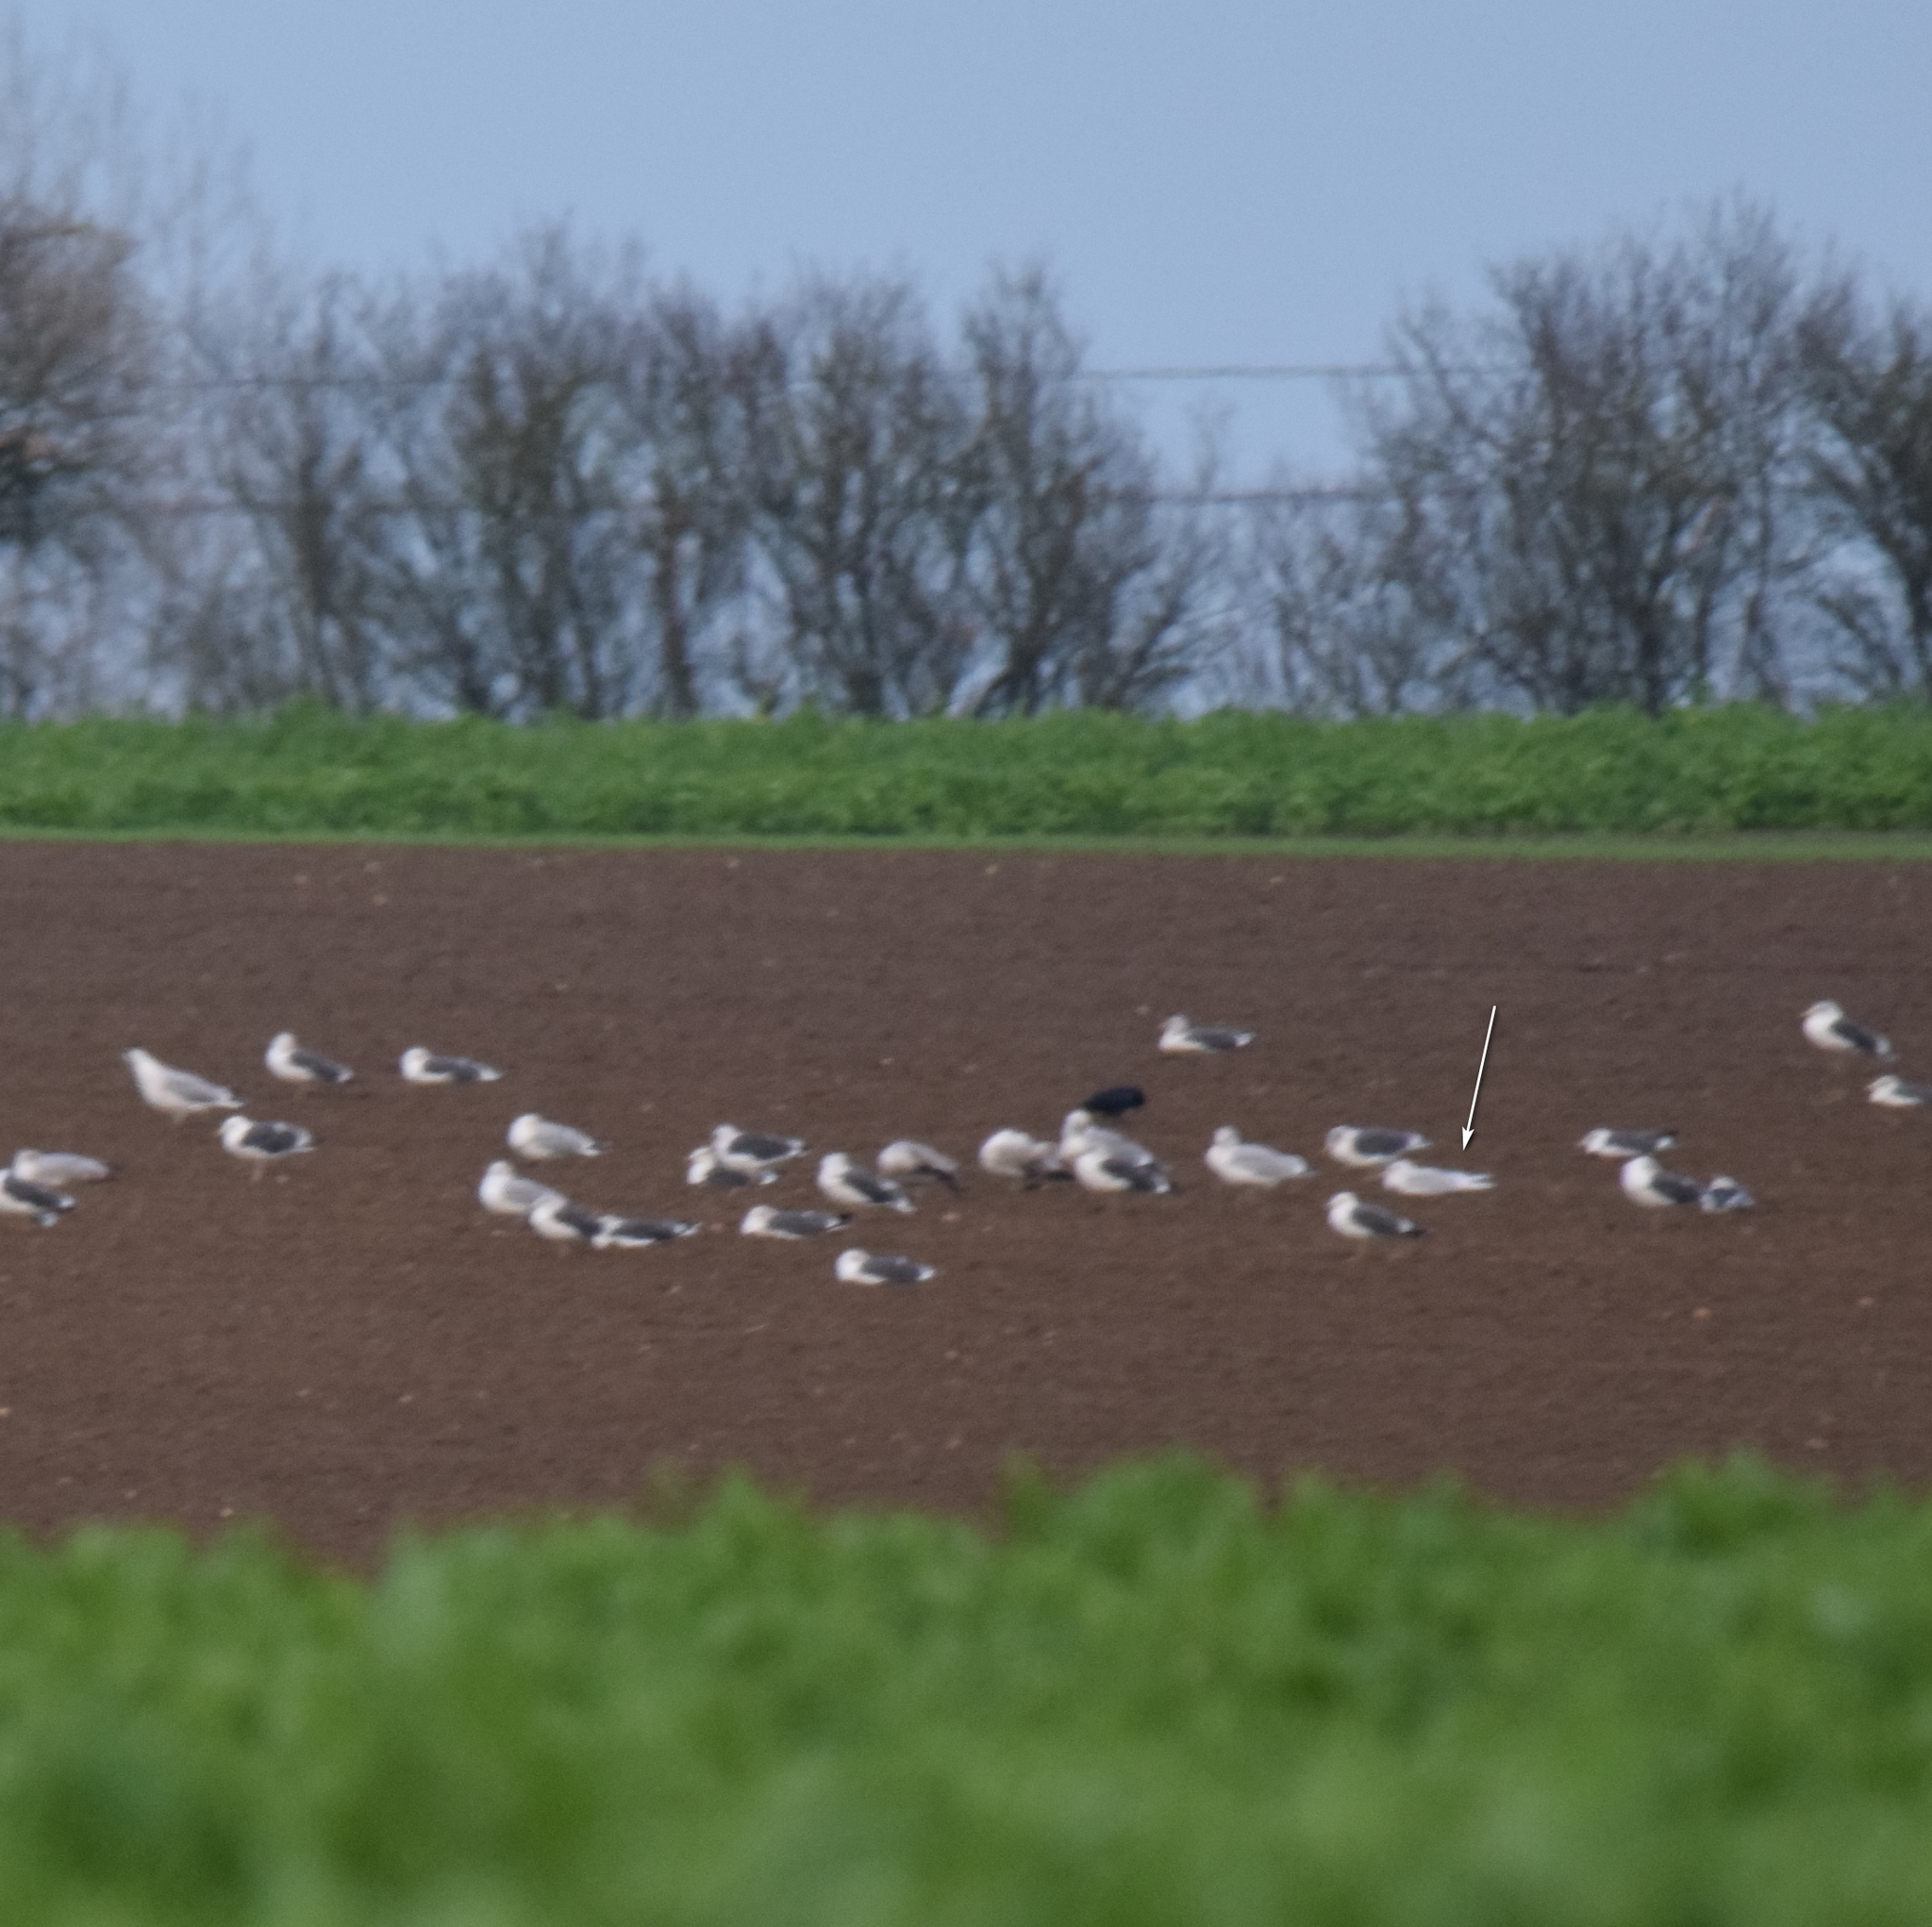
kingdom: Animalia
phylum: Chordata
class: Aves
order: Charadriiformes
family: Laridae
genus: Larus
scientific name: Larus glaucoides
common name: Iceland gull
